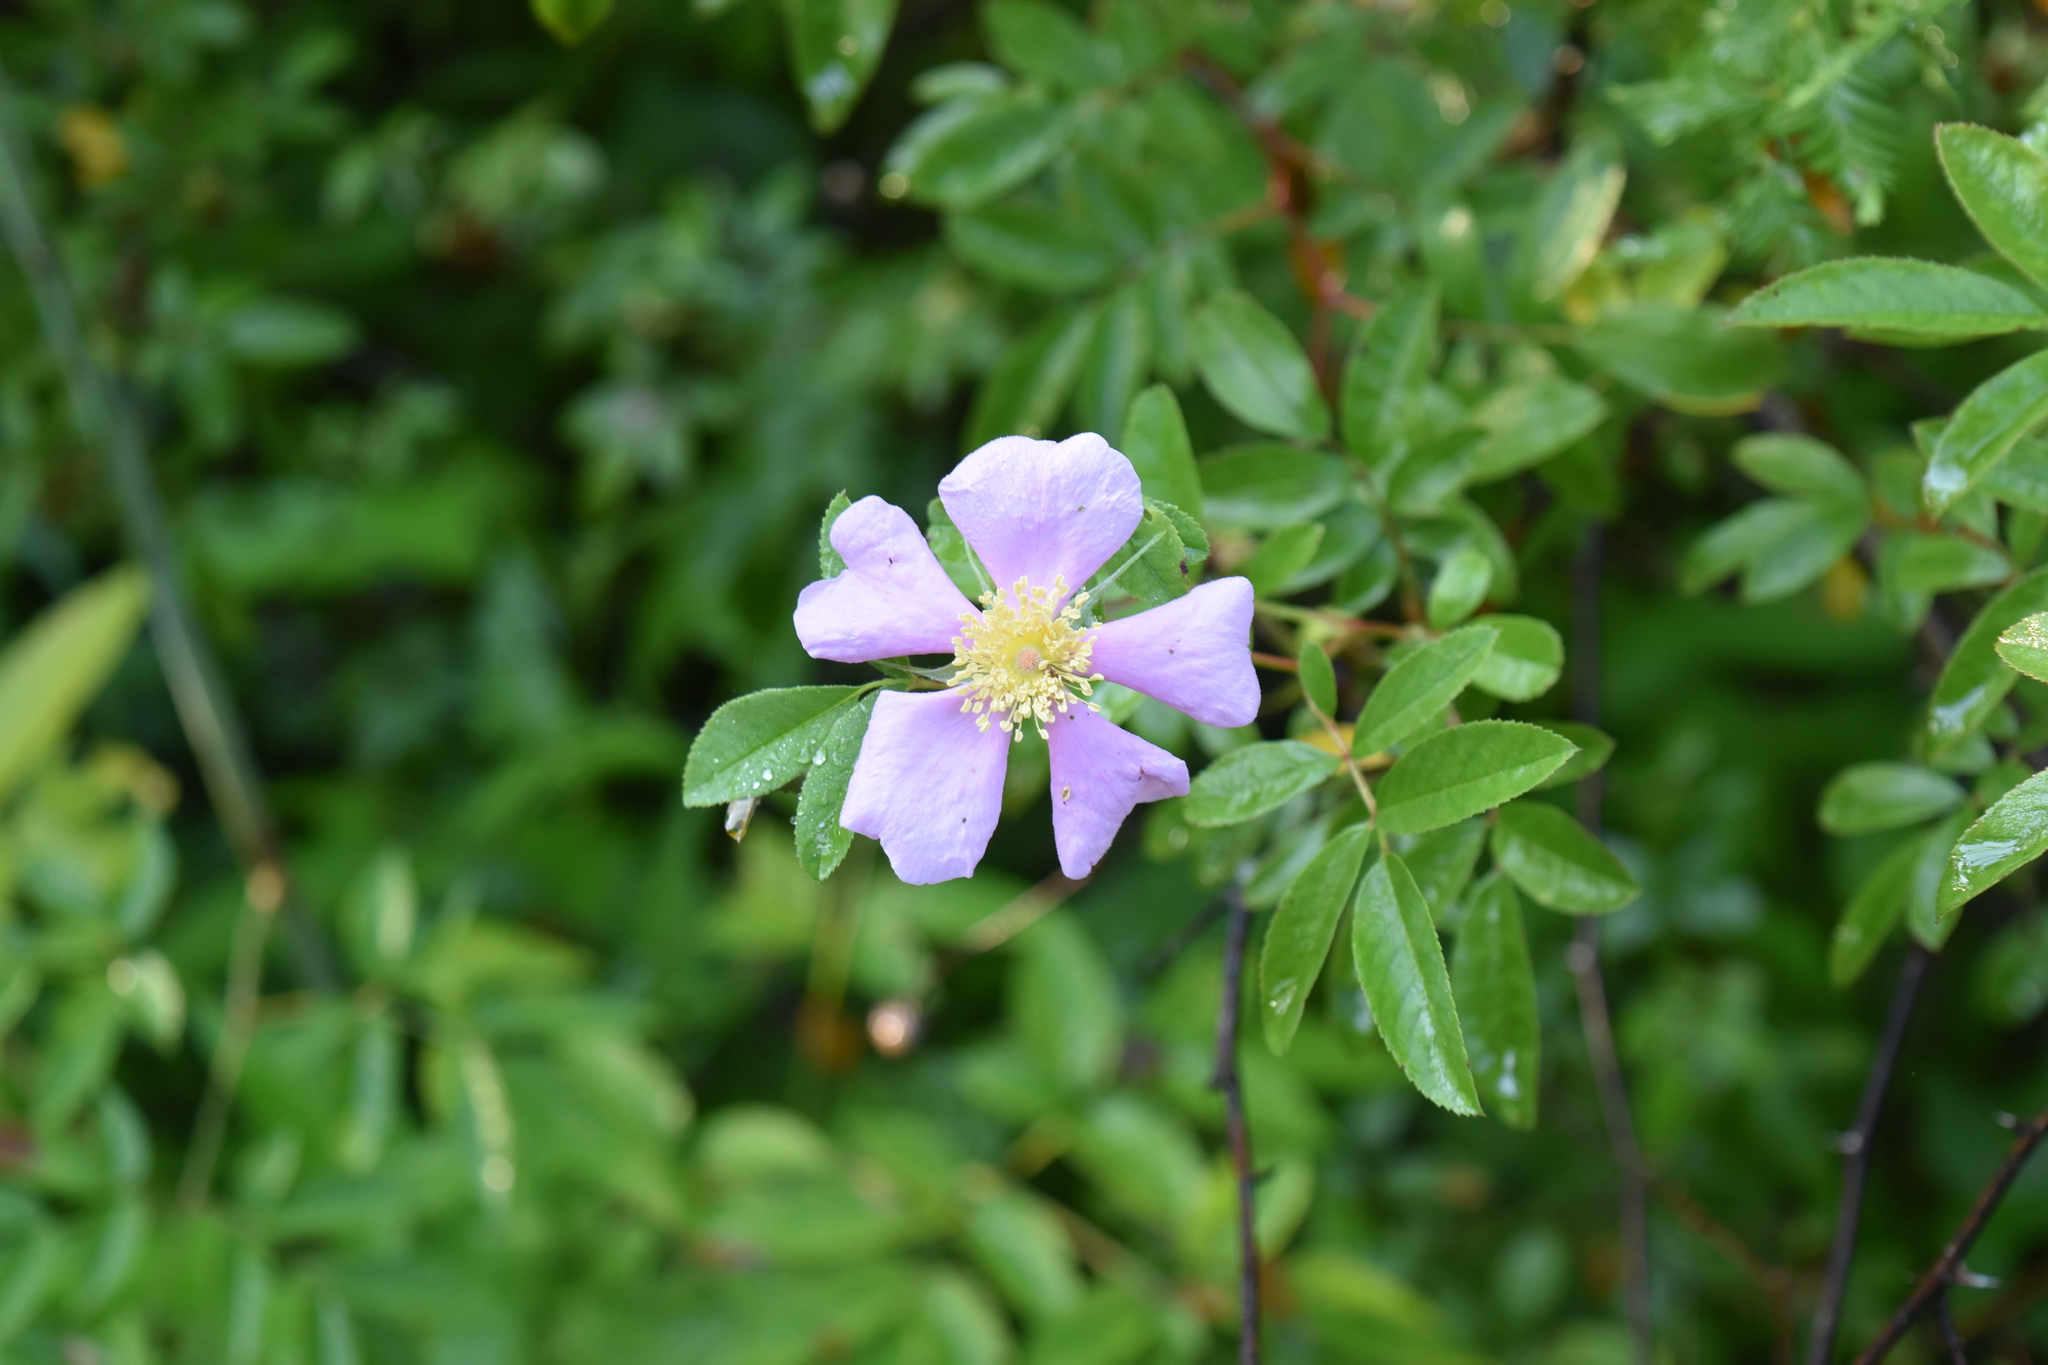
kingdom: Plantae
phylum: Tracheophyta
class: Magnoliopsida
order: Rosales
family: Rosaceae
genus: Rosa
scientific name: Rosa palustris
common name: Swamp rose
